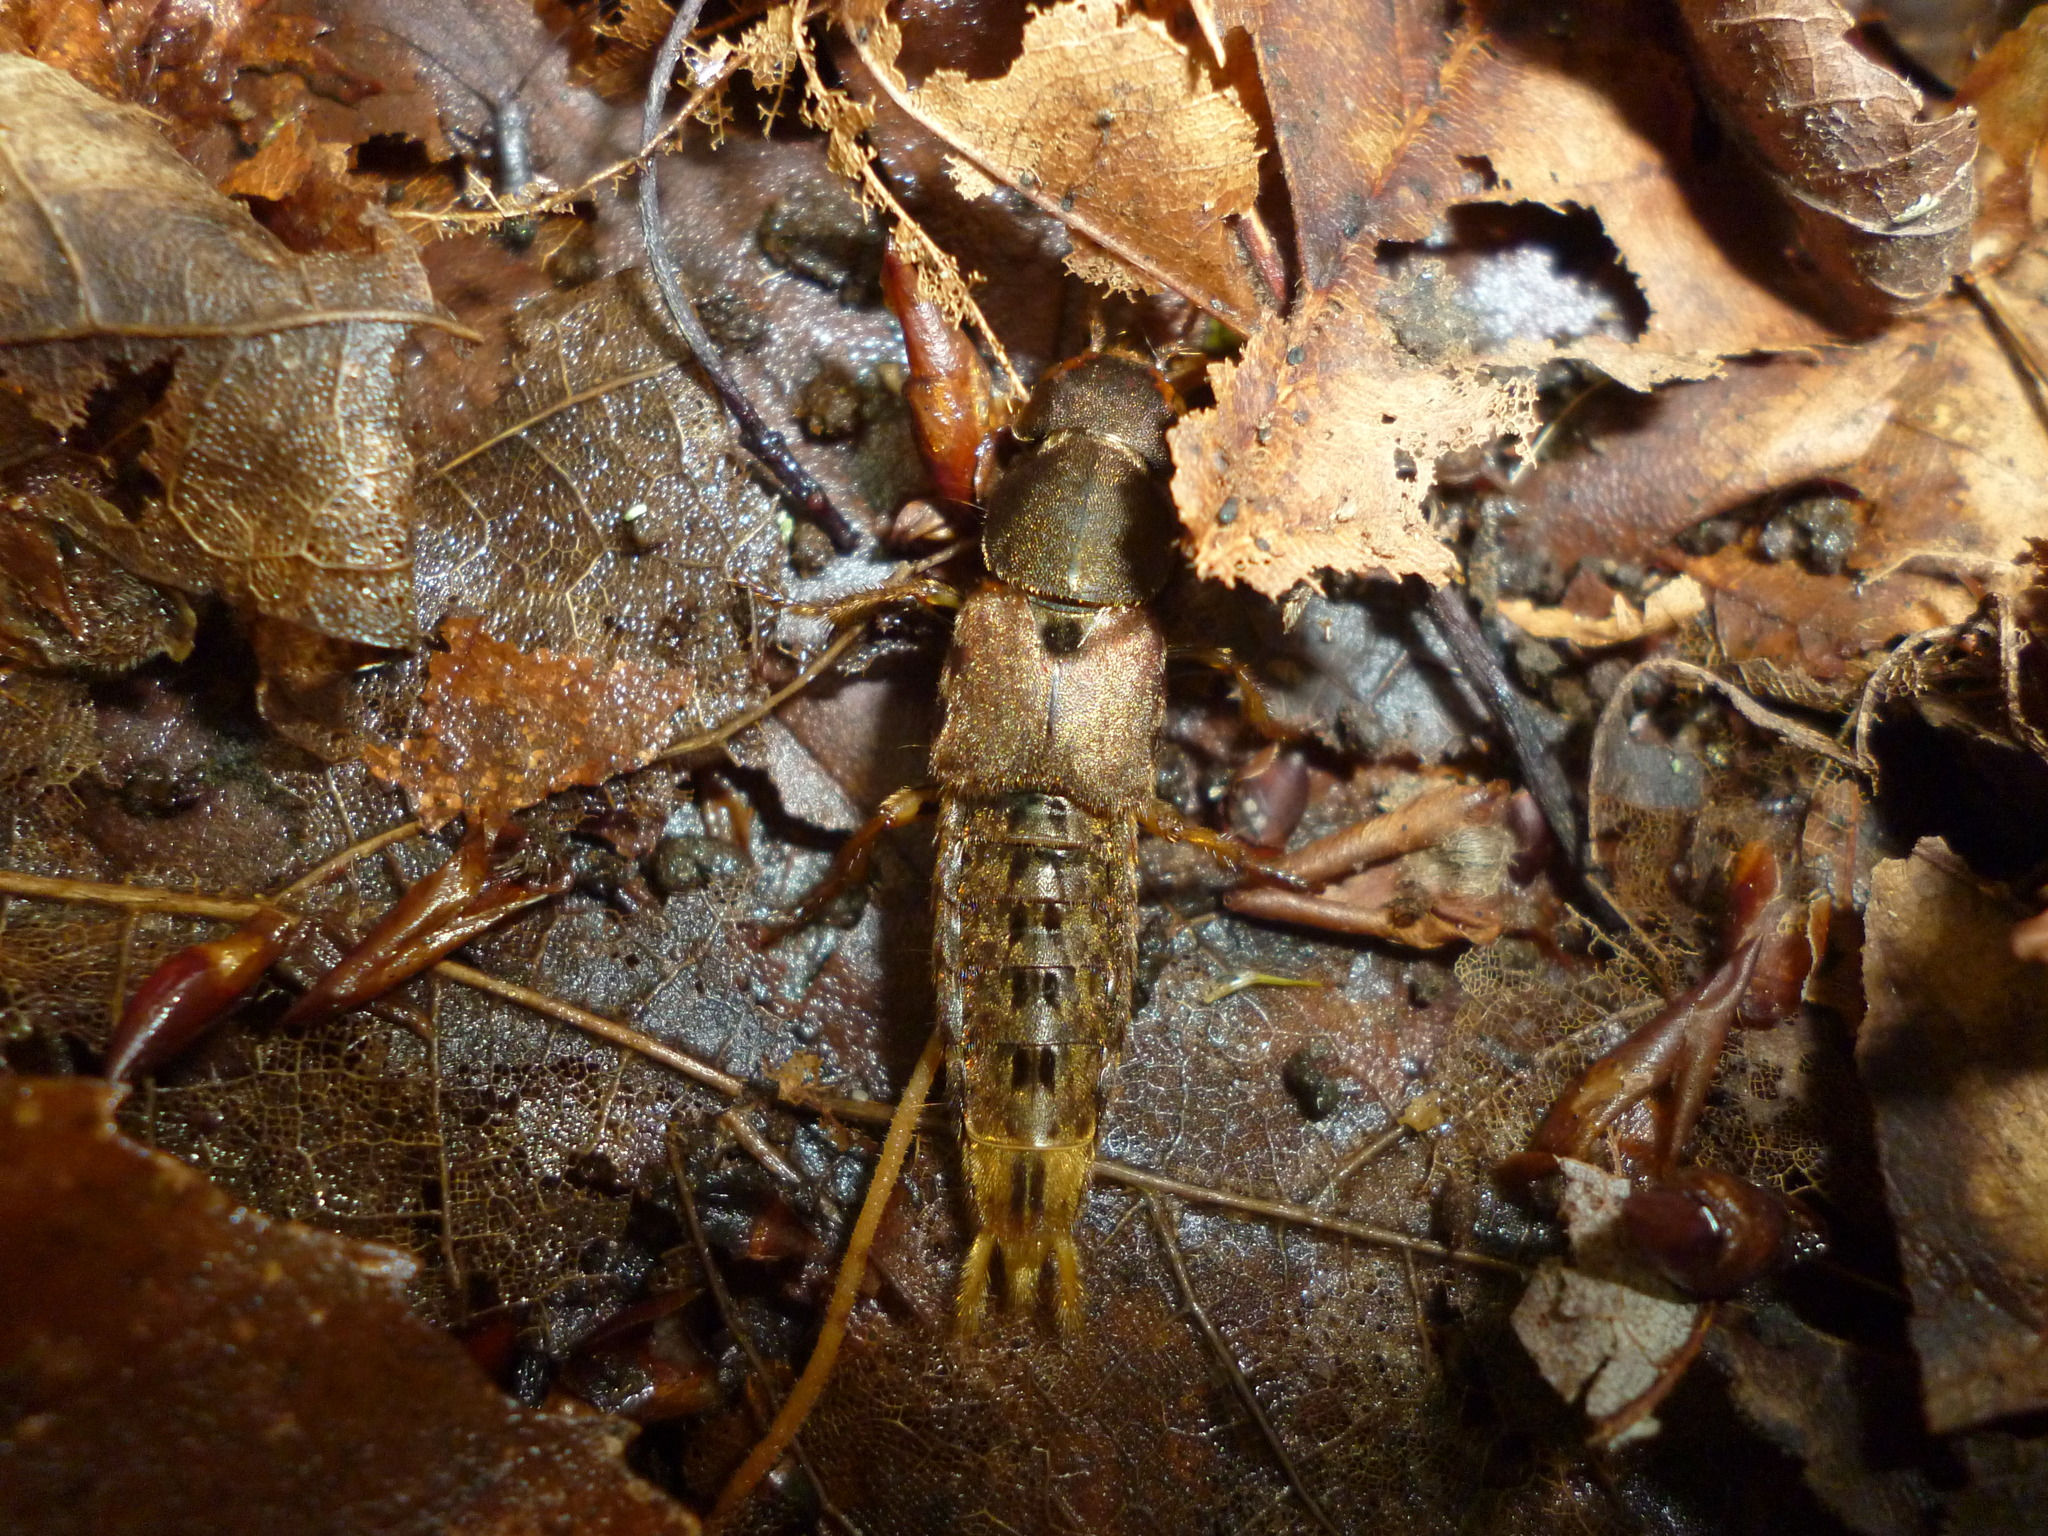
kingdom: Animalia
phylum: Arthropoda
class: Insecta
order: Coleoptera
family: Staphylinidae
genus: Platydracus
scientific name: Platydracus maculosus
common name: Brown rove beetle
